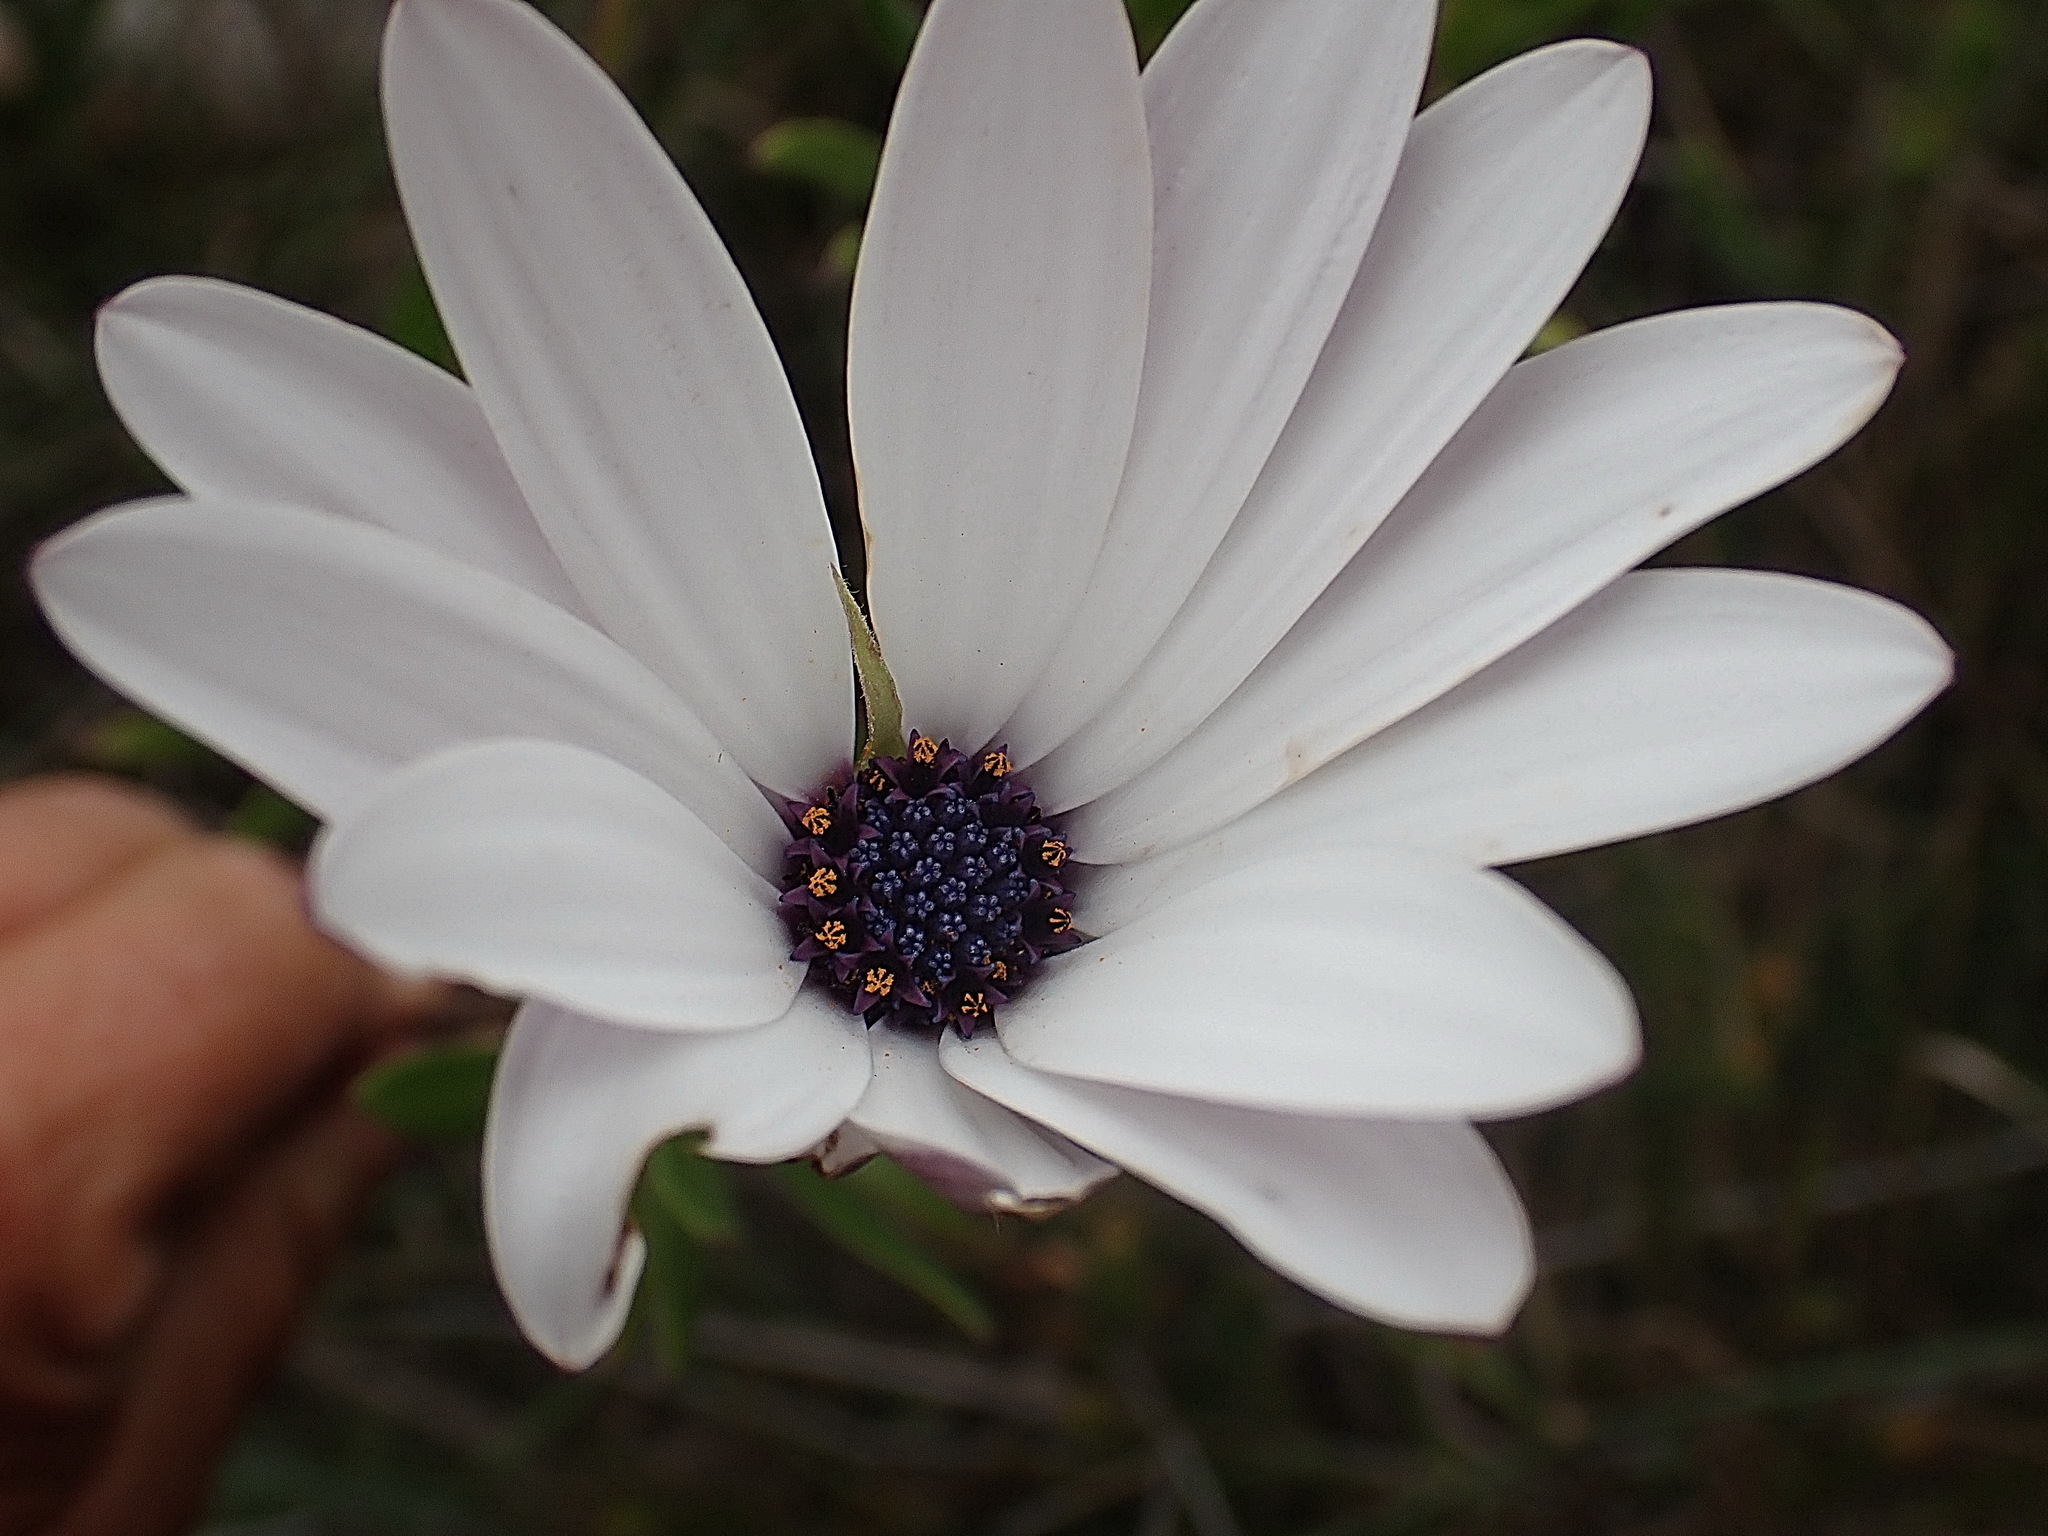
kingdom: Plantae
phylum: Tracheophyta
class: Magnoliopsida
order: Asterales
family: Asteraceae
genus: Dimorphotheca
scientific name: Dimorphotheca ecklonis
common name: Vanstaden's river daisy
